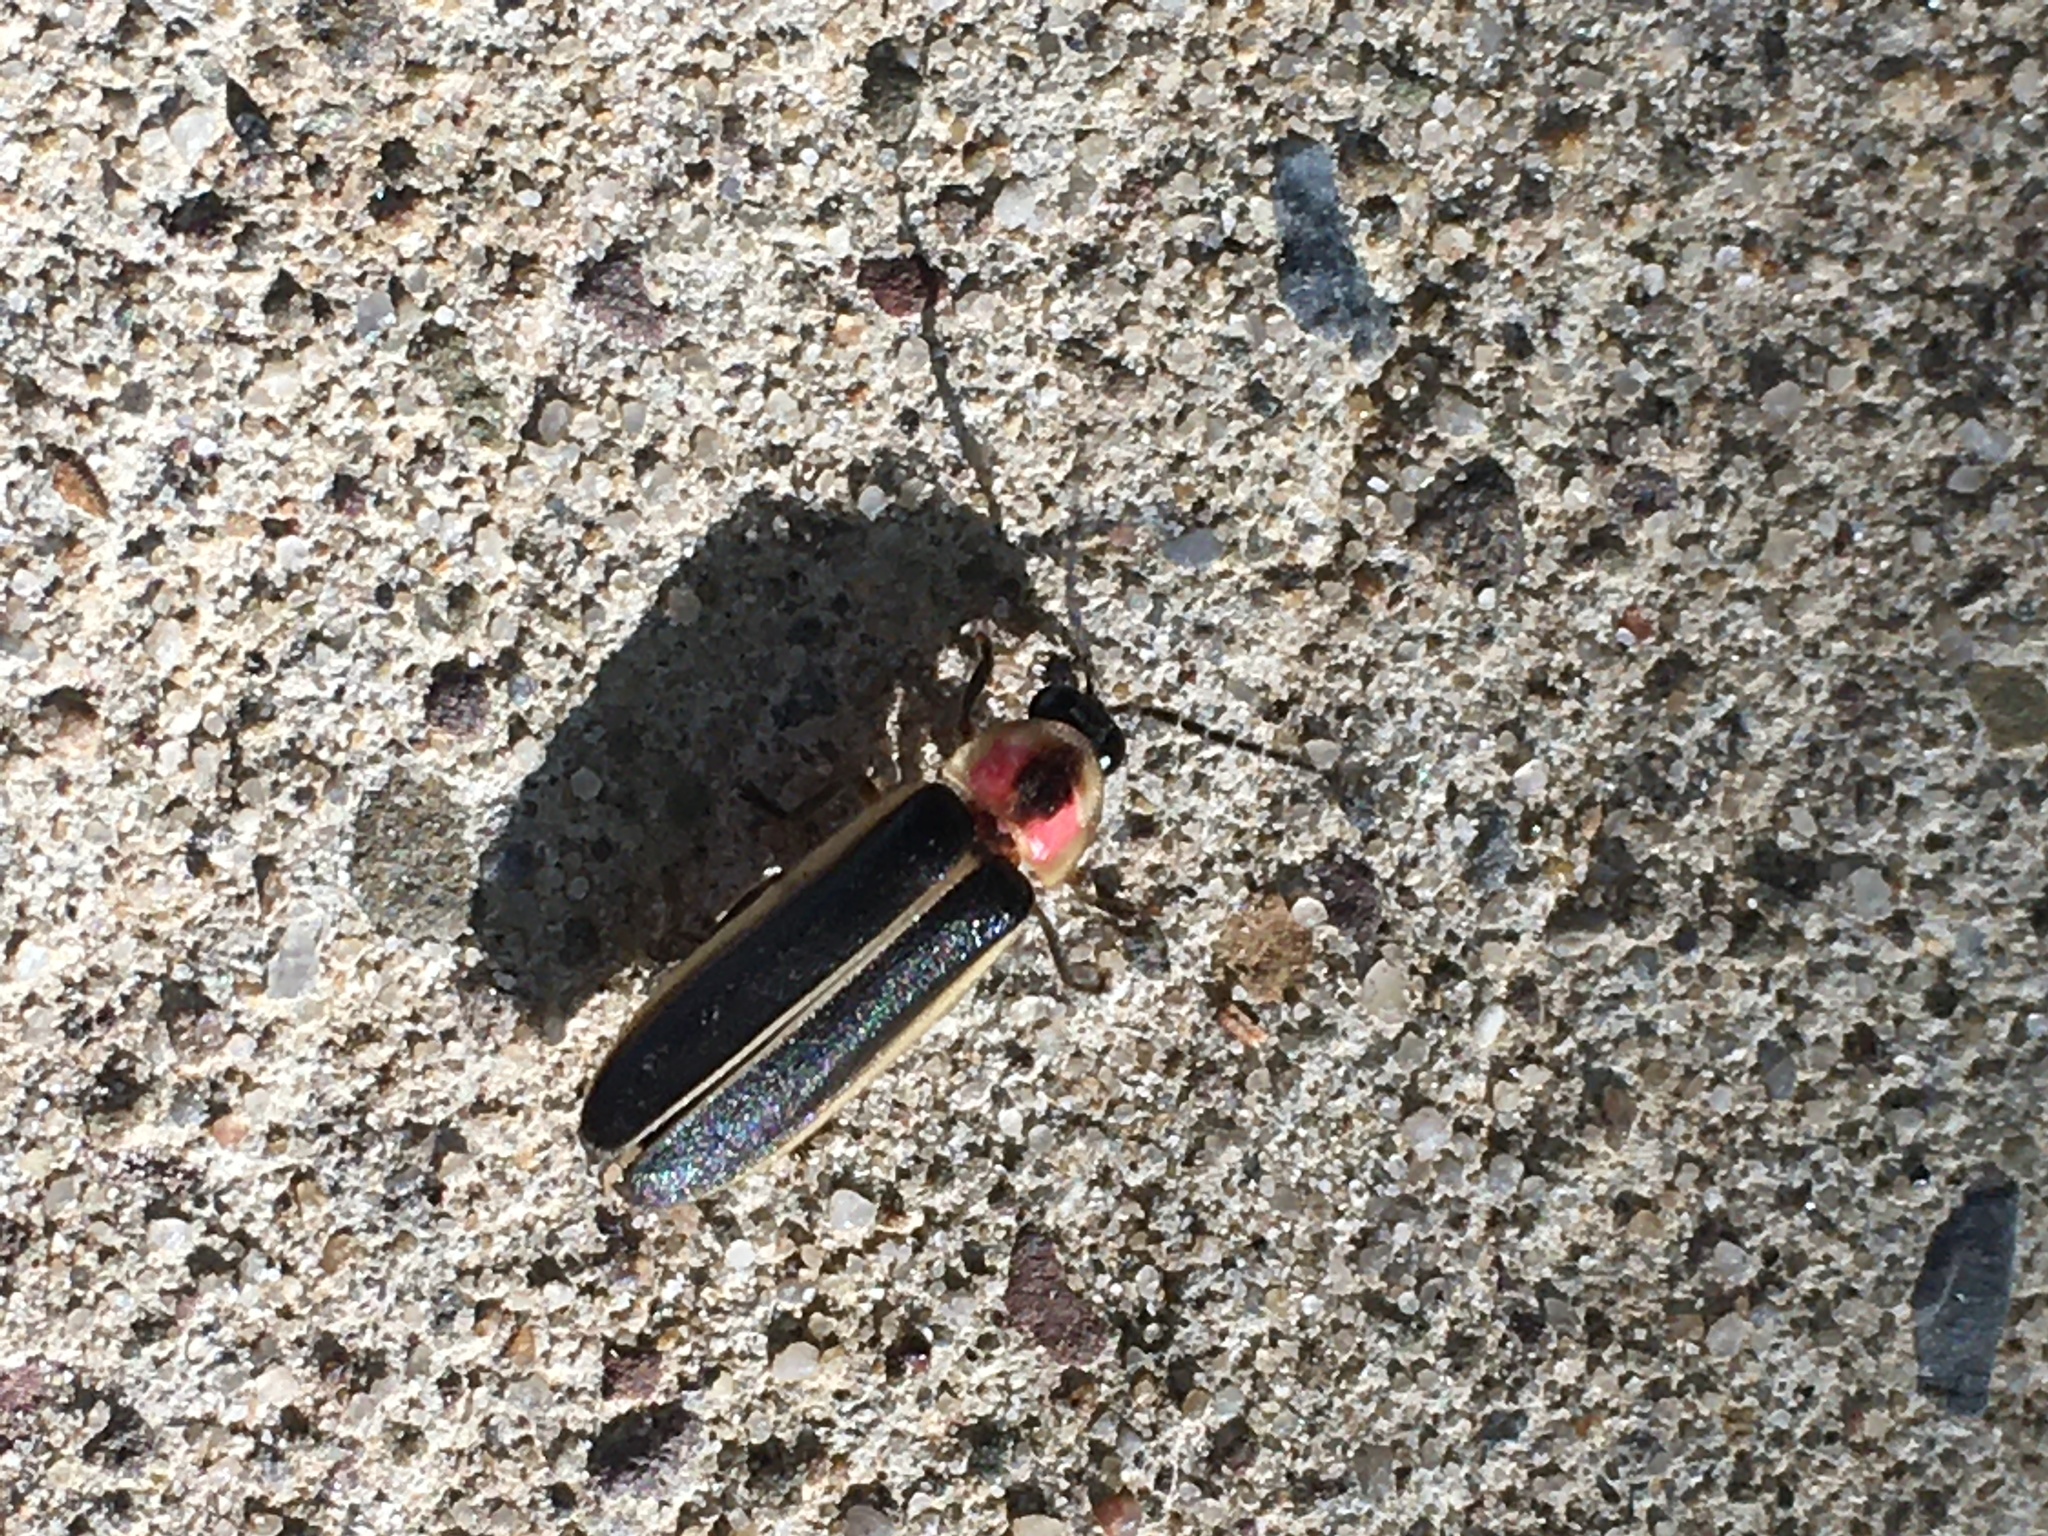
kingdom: Animalia
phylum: Arthropoda
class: Insecta
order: Coleoptera
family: Lampyridae
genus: Photinus
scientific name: Photinus pyralis
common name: Big dipper firefly
